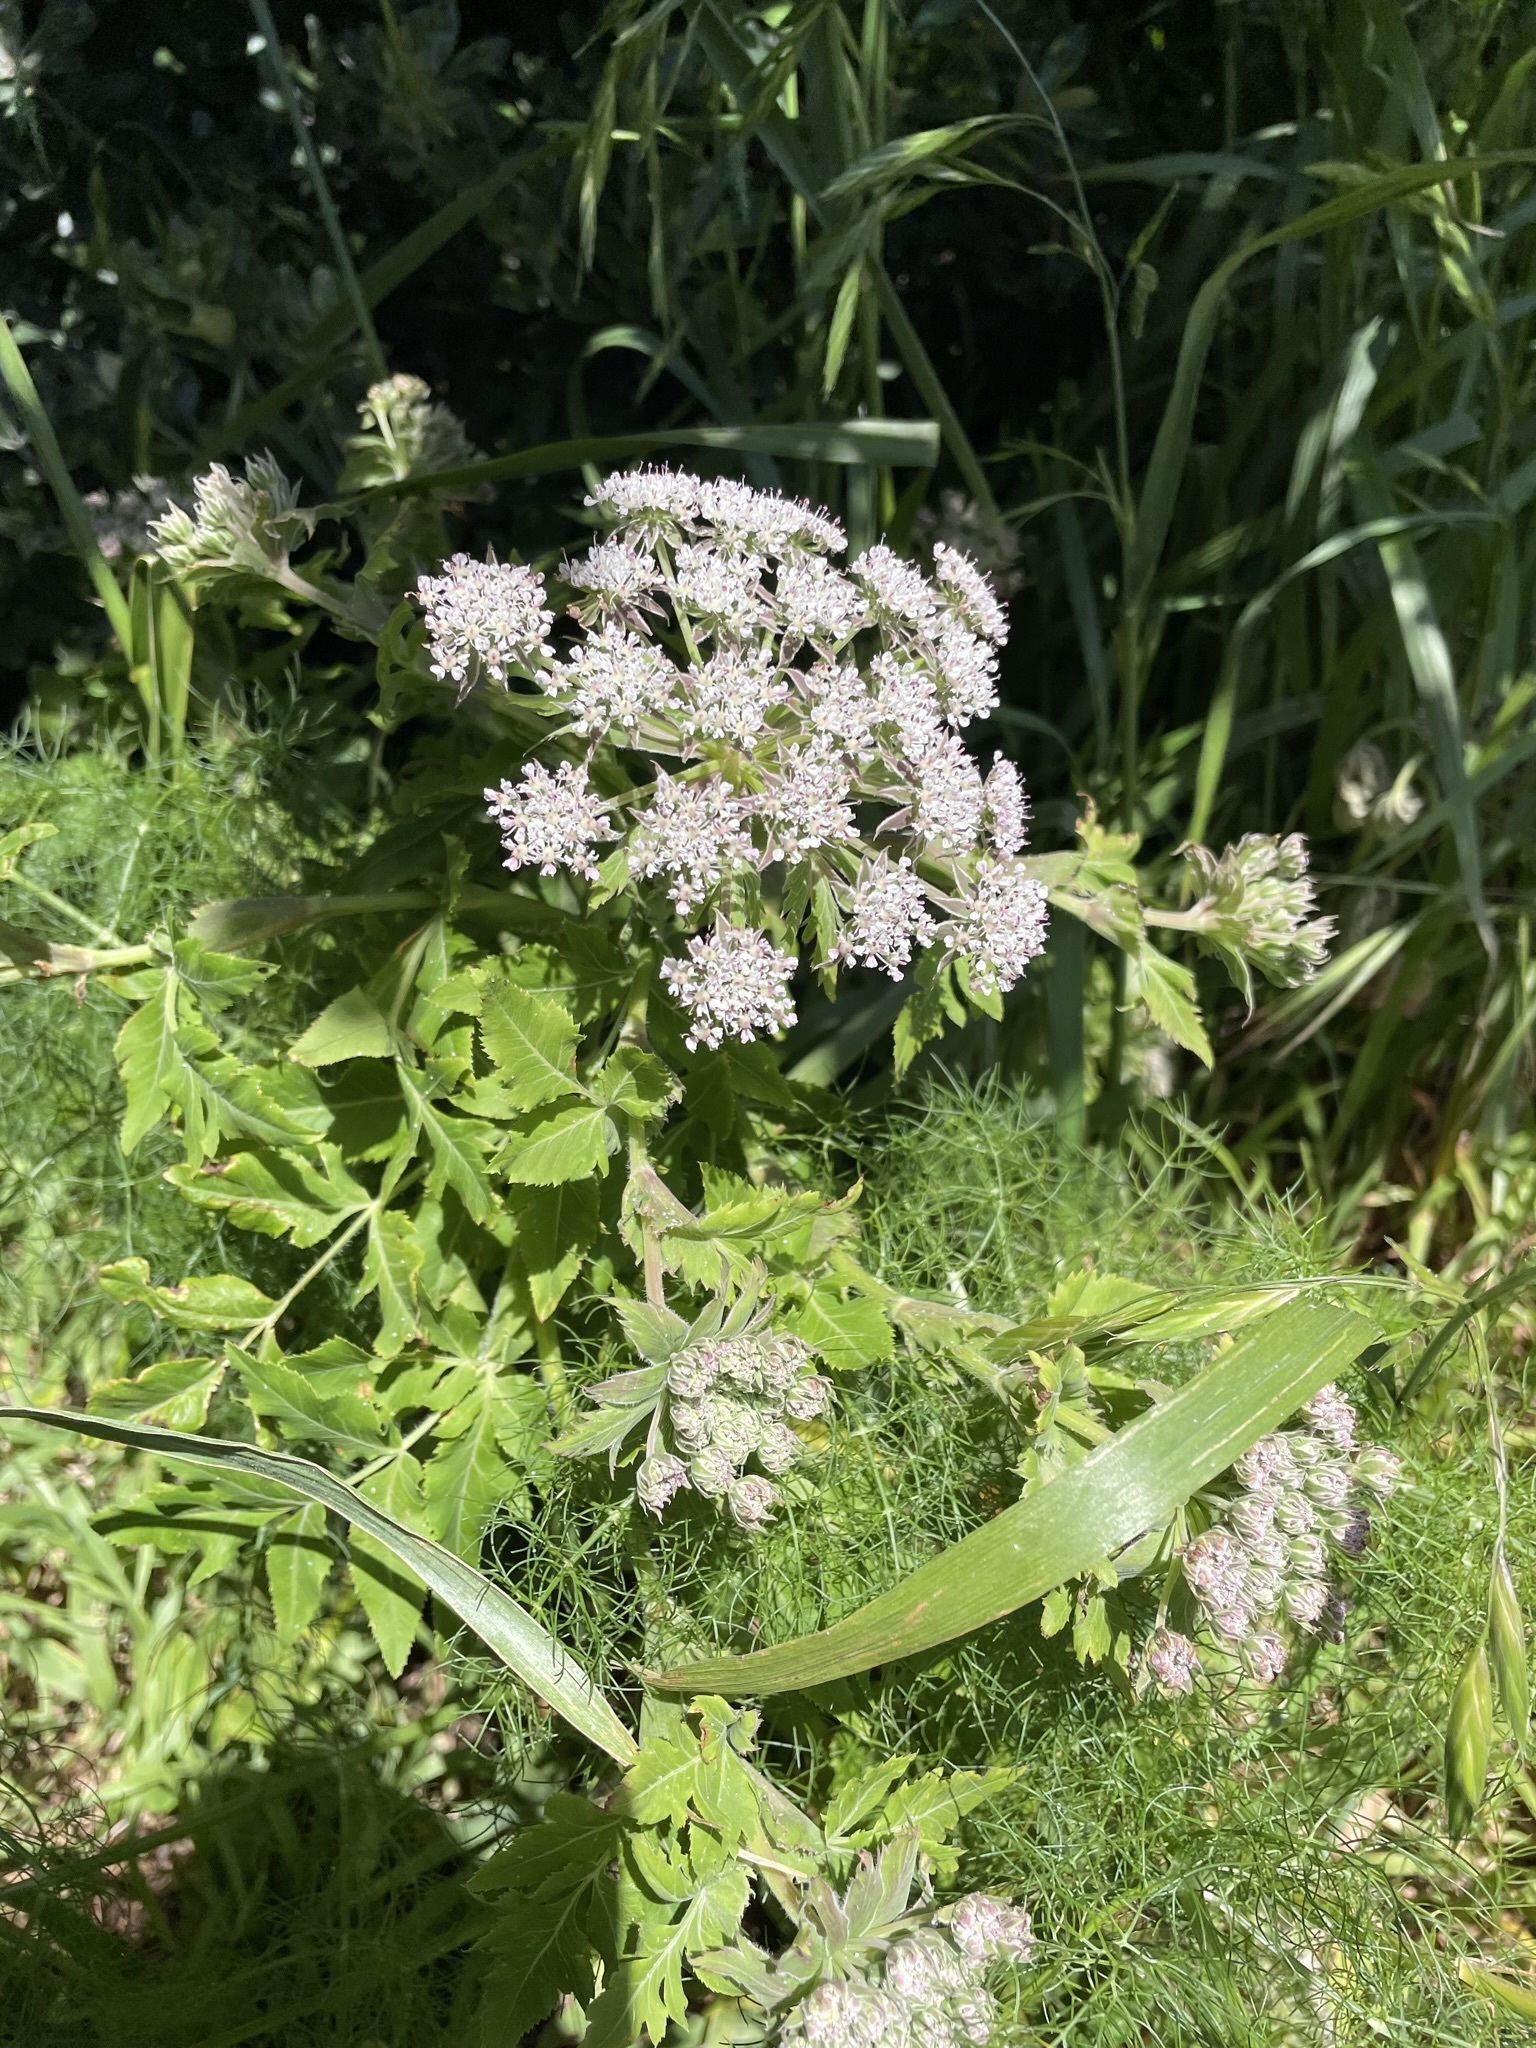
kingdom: Plantae
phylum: Tracheophyta
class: Magnoliopsida
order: Apiales
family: Apiaceae
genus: Daucus
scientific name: Daucus decipiens
